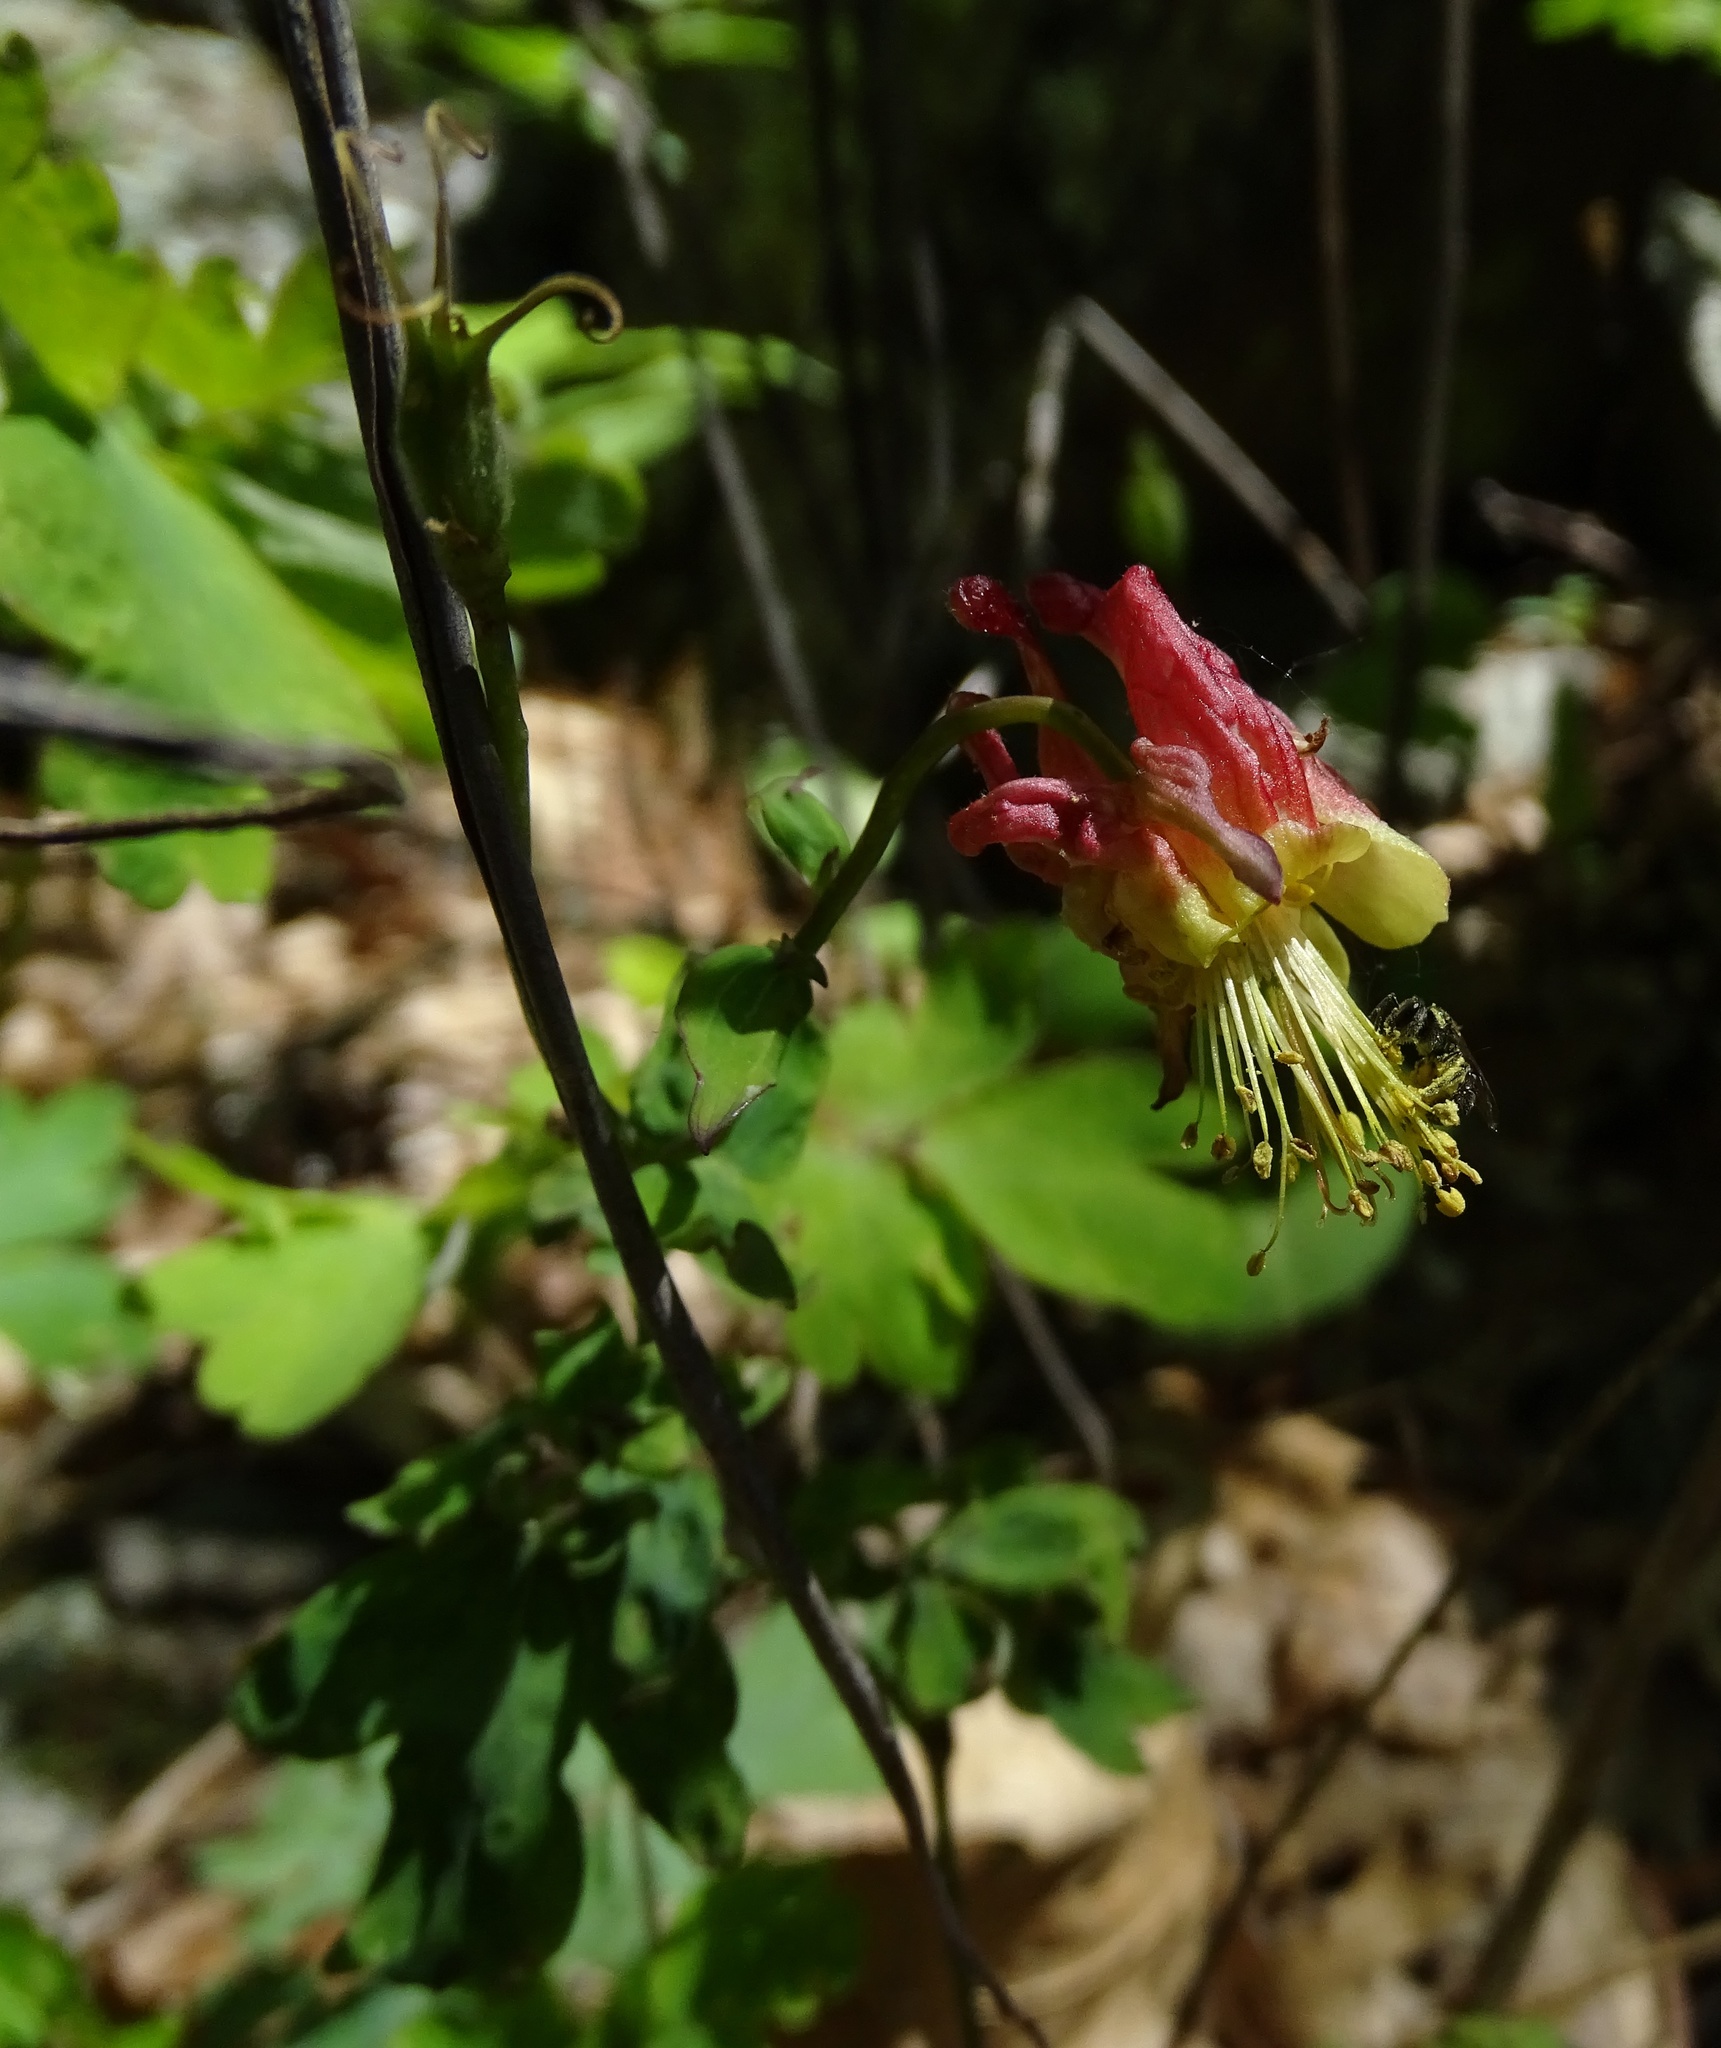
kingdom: Plantae
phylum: Tracheophyta
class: Magnoliopsida
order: Ranunculales
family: Ranunculaceae
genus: Aquilegia
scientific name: Aquilegia canadensis
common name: American columbine
